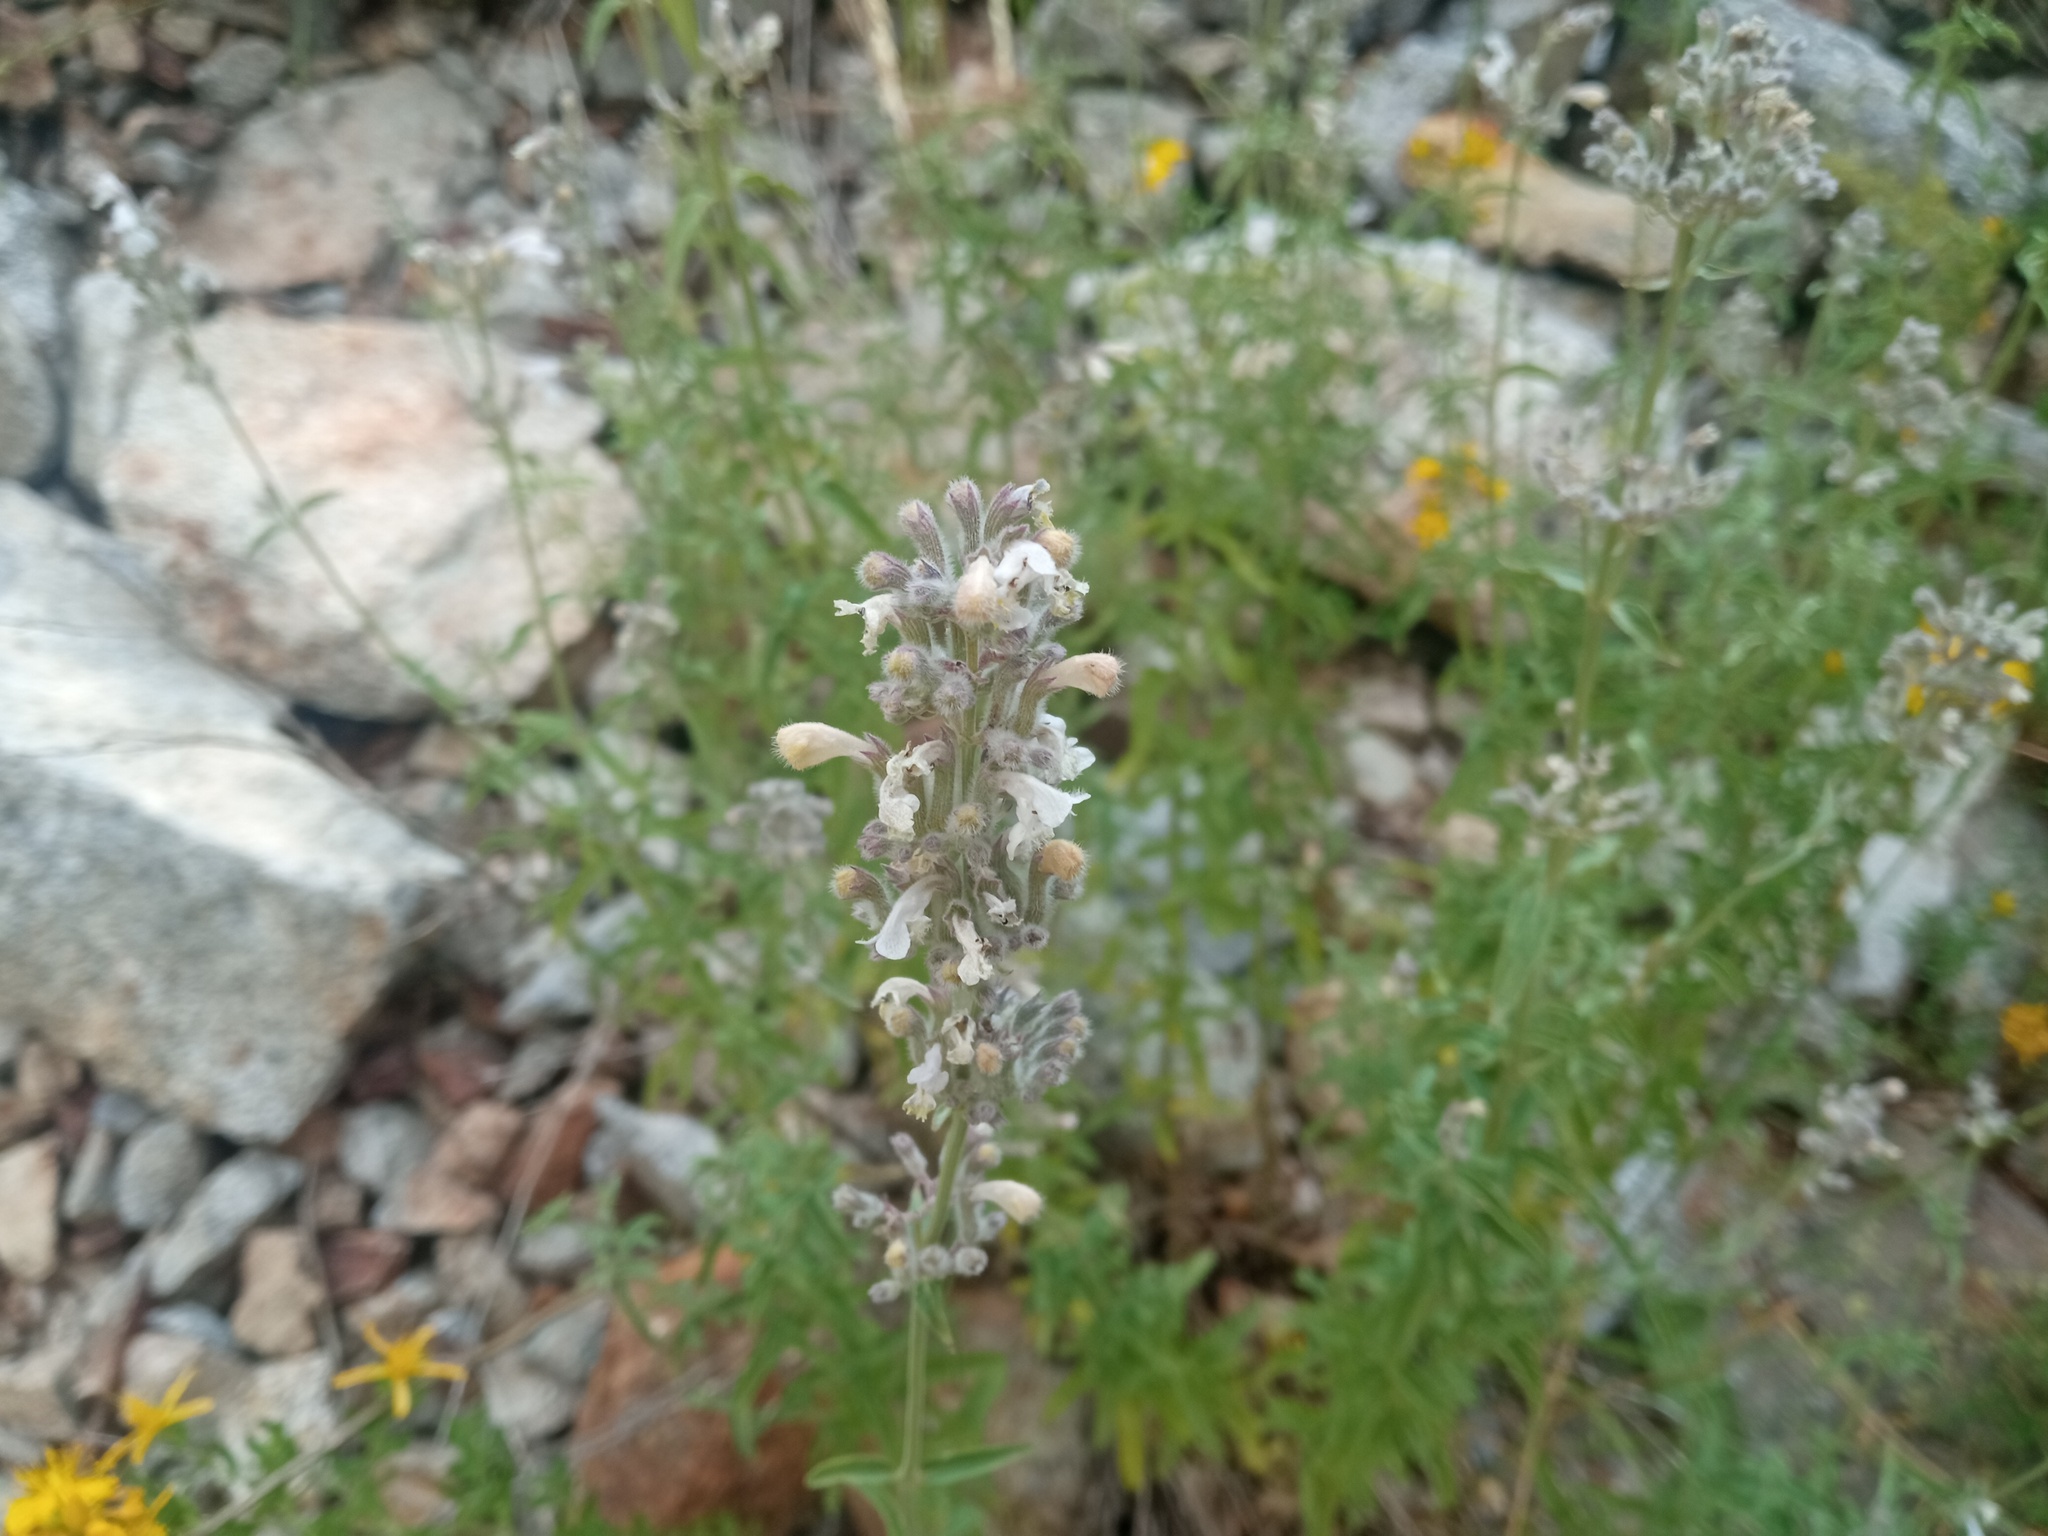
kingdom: Plantae
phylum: Tracheophyta
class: Magnoliopsida
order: Lamiales
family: Lamiaceae
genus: Nepeta
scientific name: Nepeta nepetella
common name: Lesser catmint
